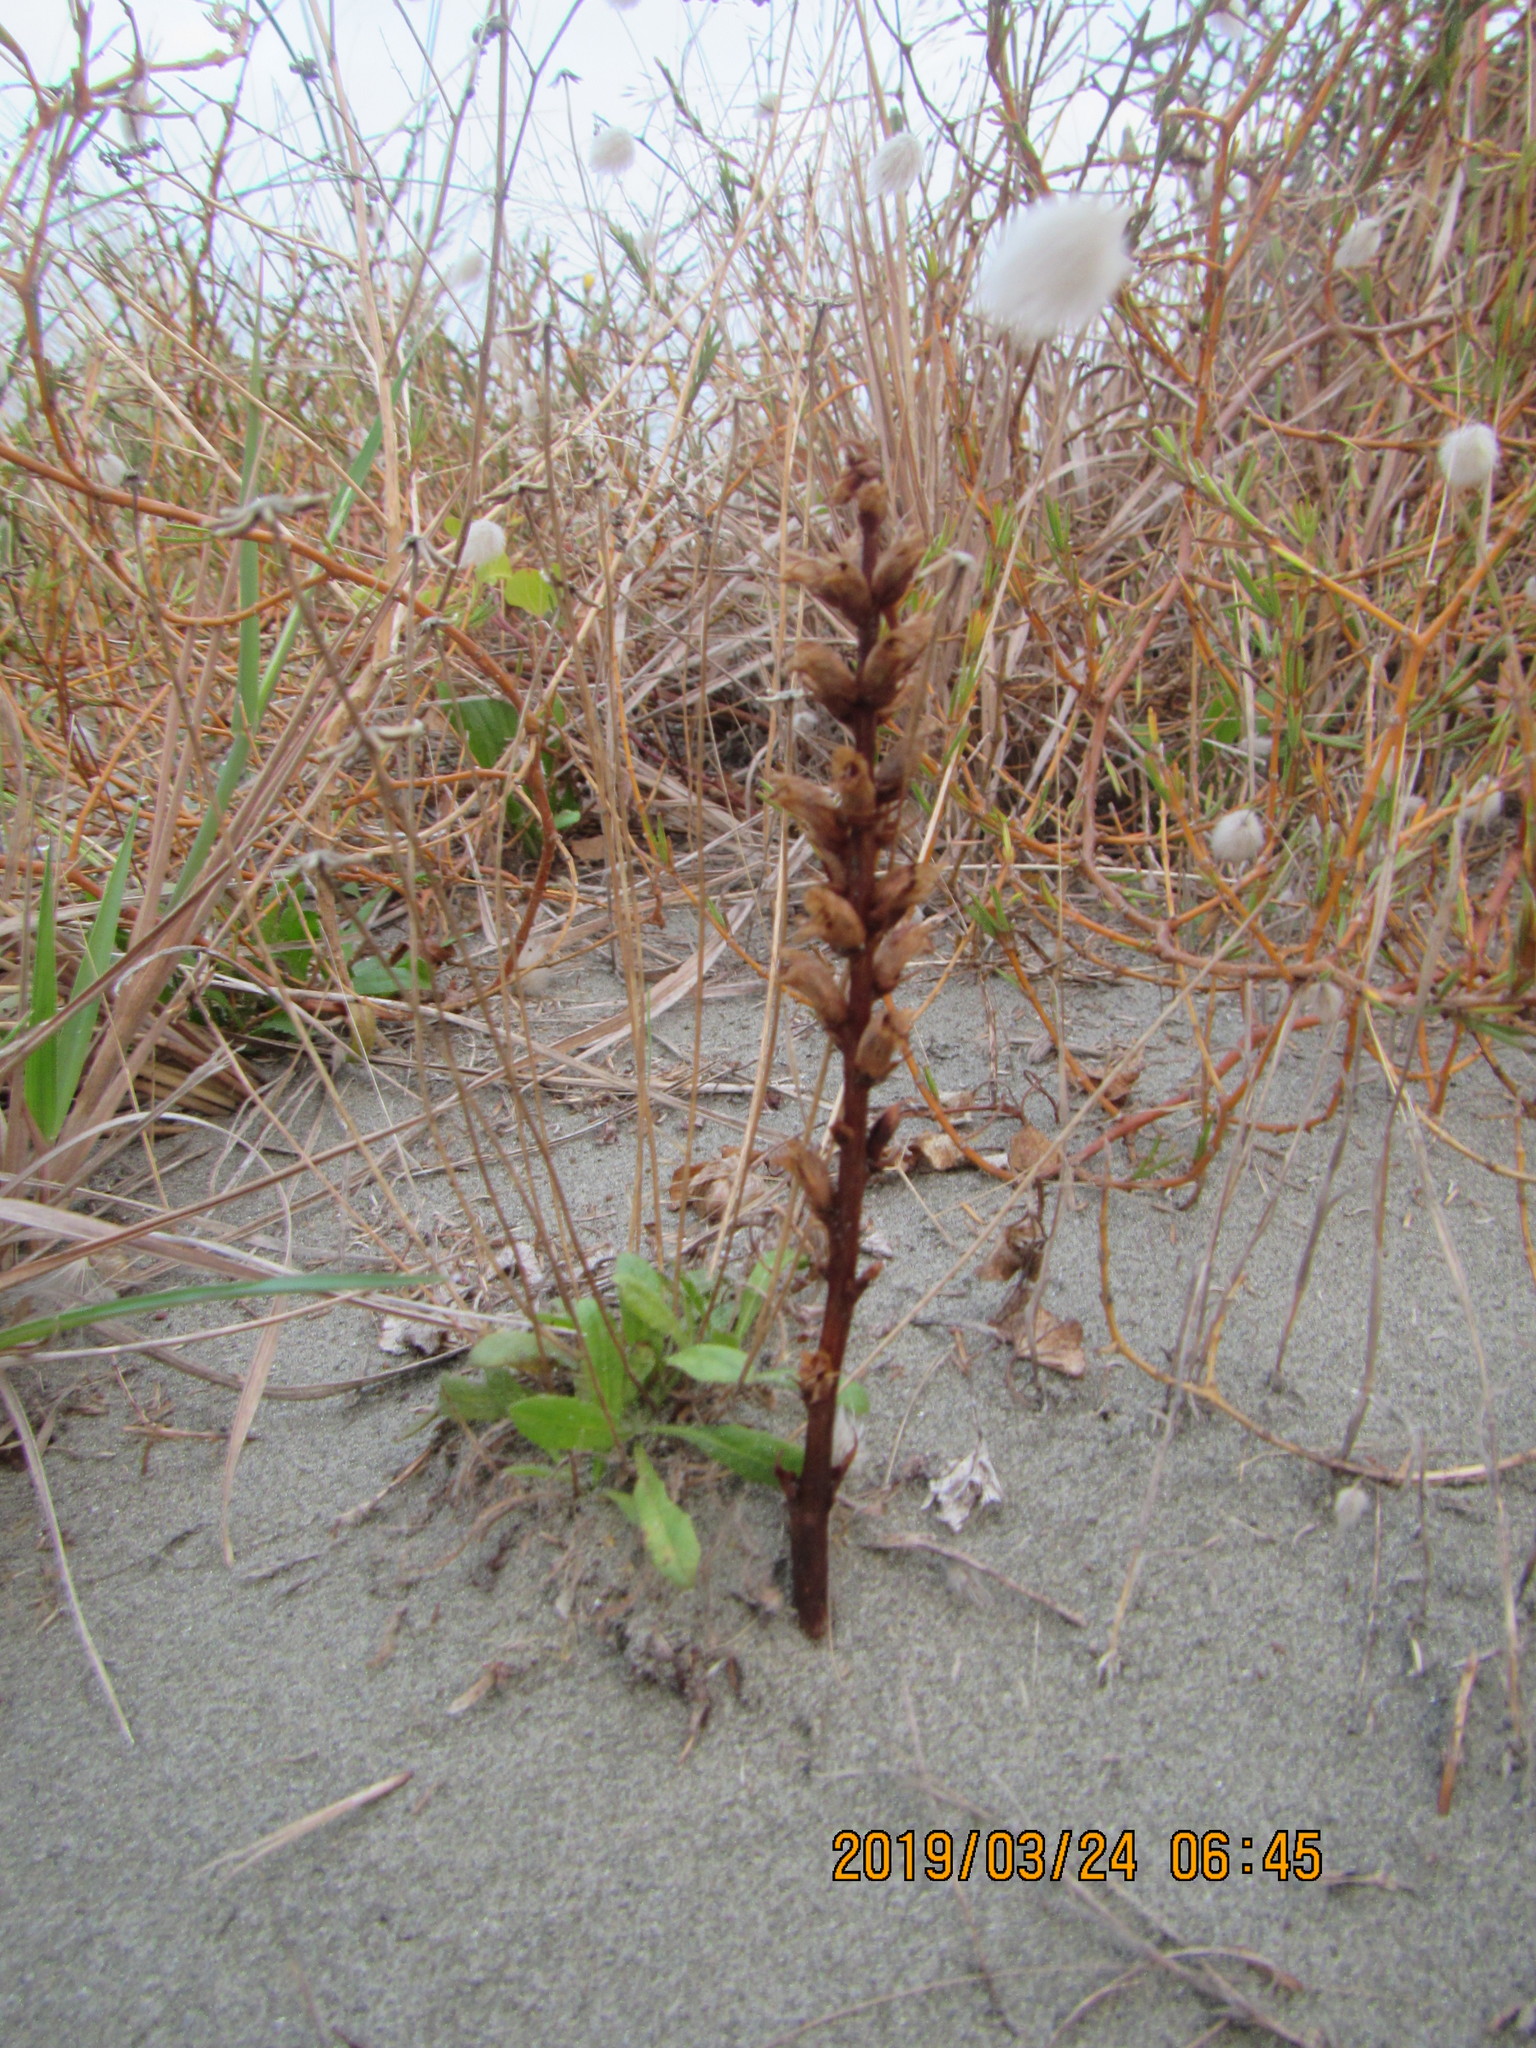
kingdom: Plantae
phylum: Tracheophyta
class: Magnoliopsida
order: Lamiales
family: Orobanchaceae
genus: Orobanche
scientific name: Orobanche minor
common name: Common broomrape
